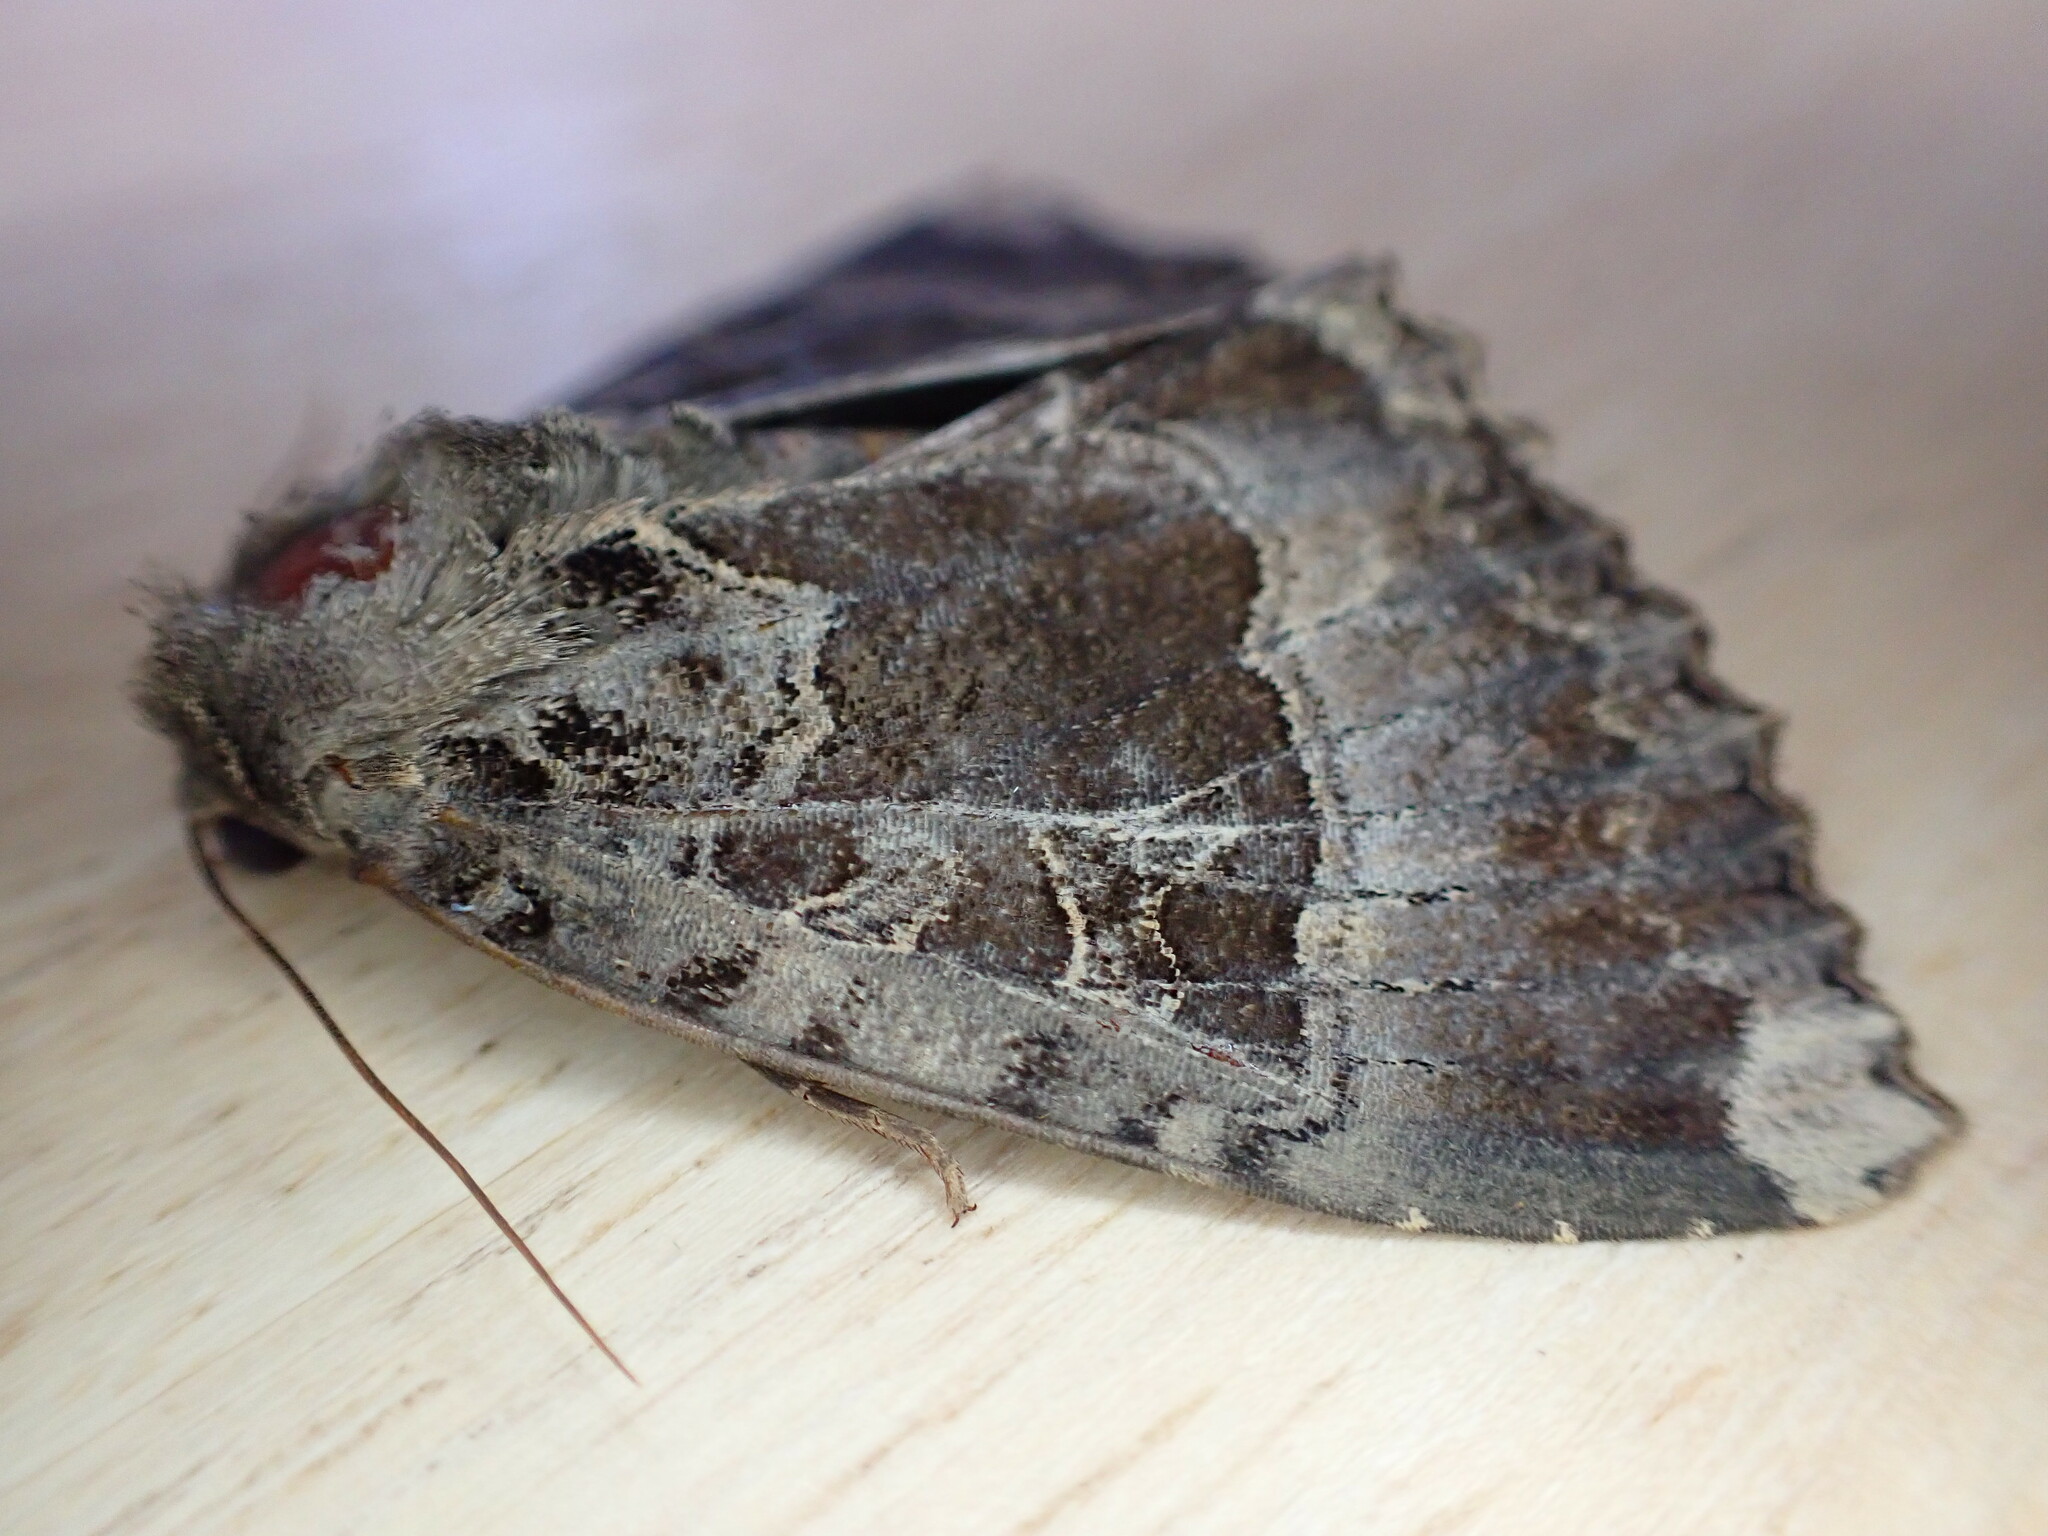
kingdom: Animalia
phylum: Arthropoda
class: Insecta
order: Lepidoptera
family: Noctuidae
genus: Mormo
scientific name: Mormo maura
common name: Old lady
